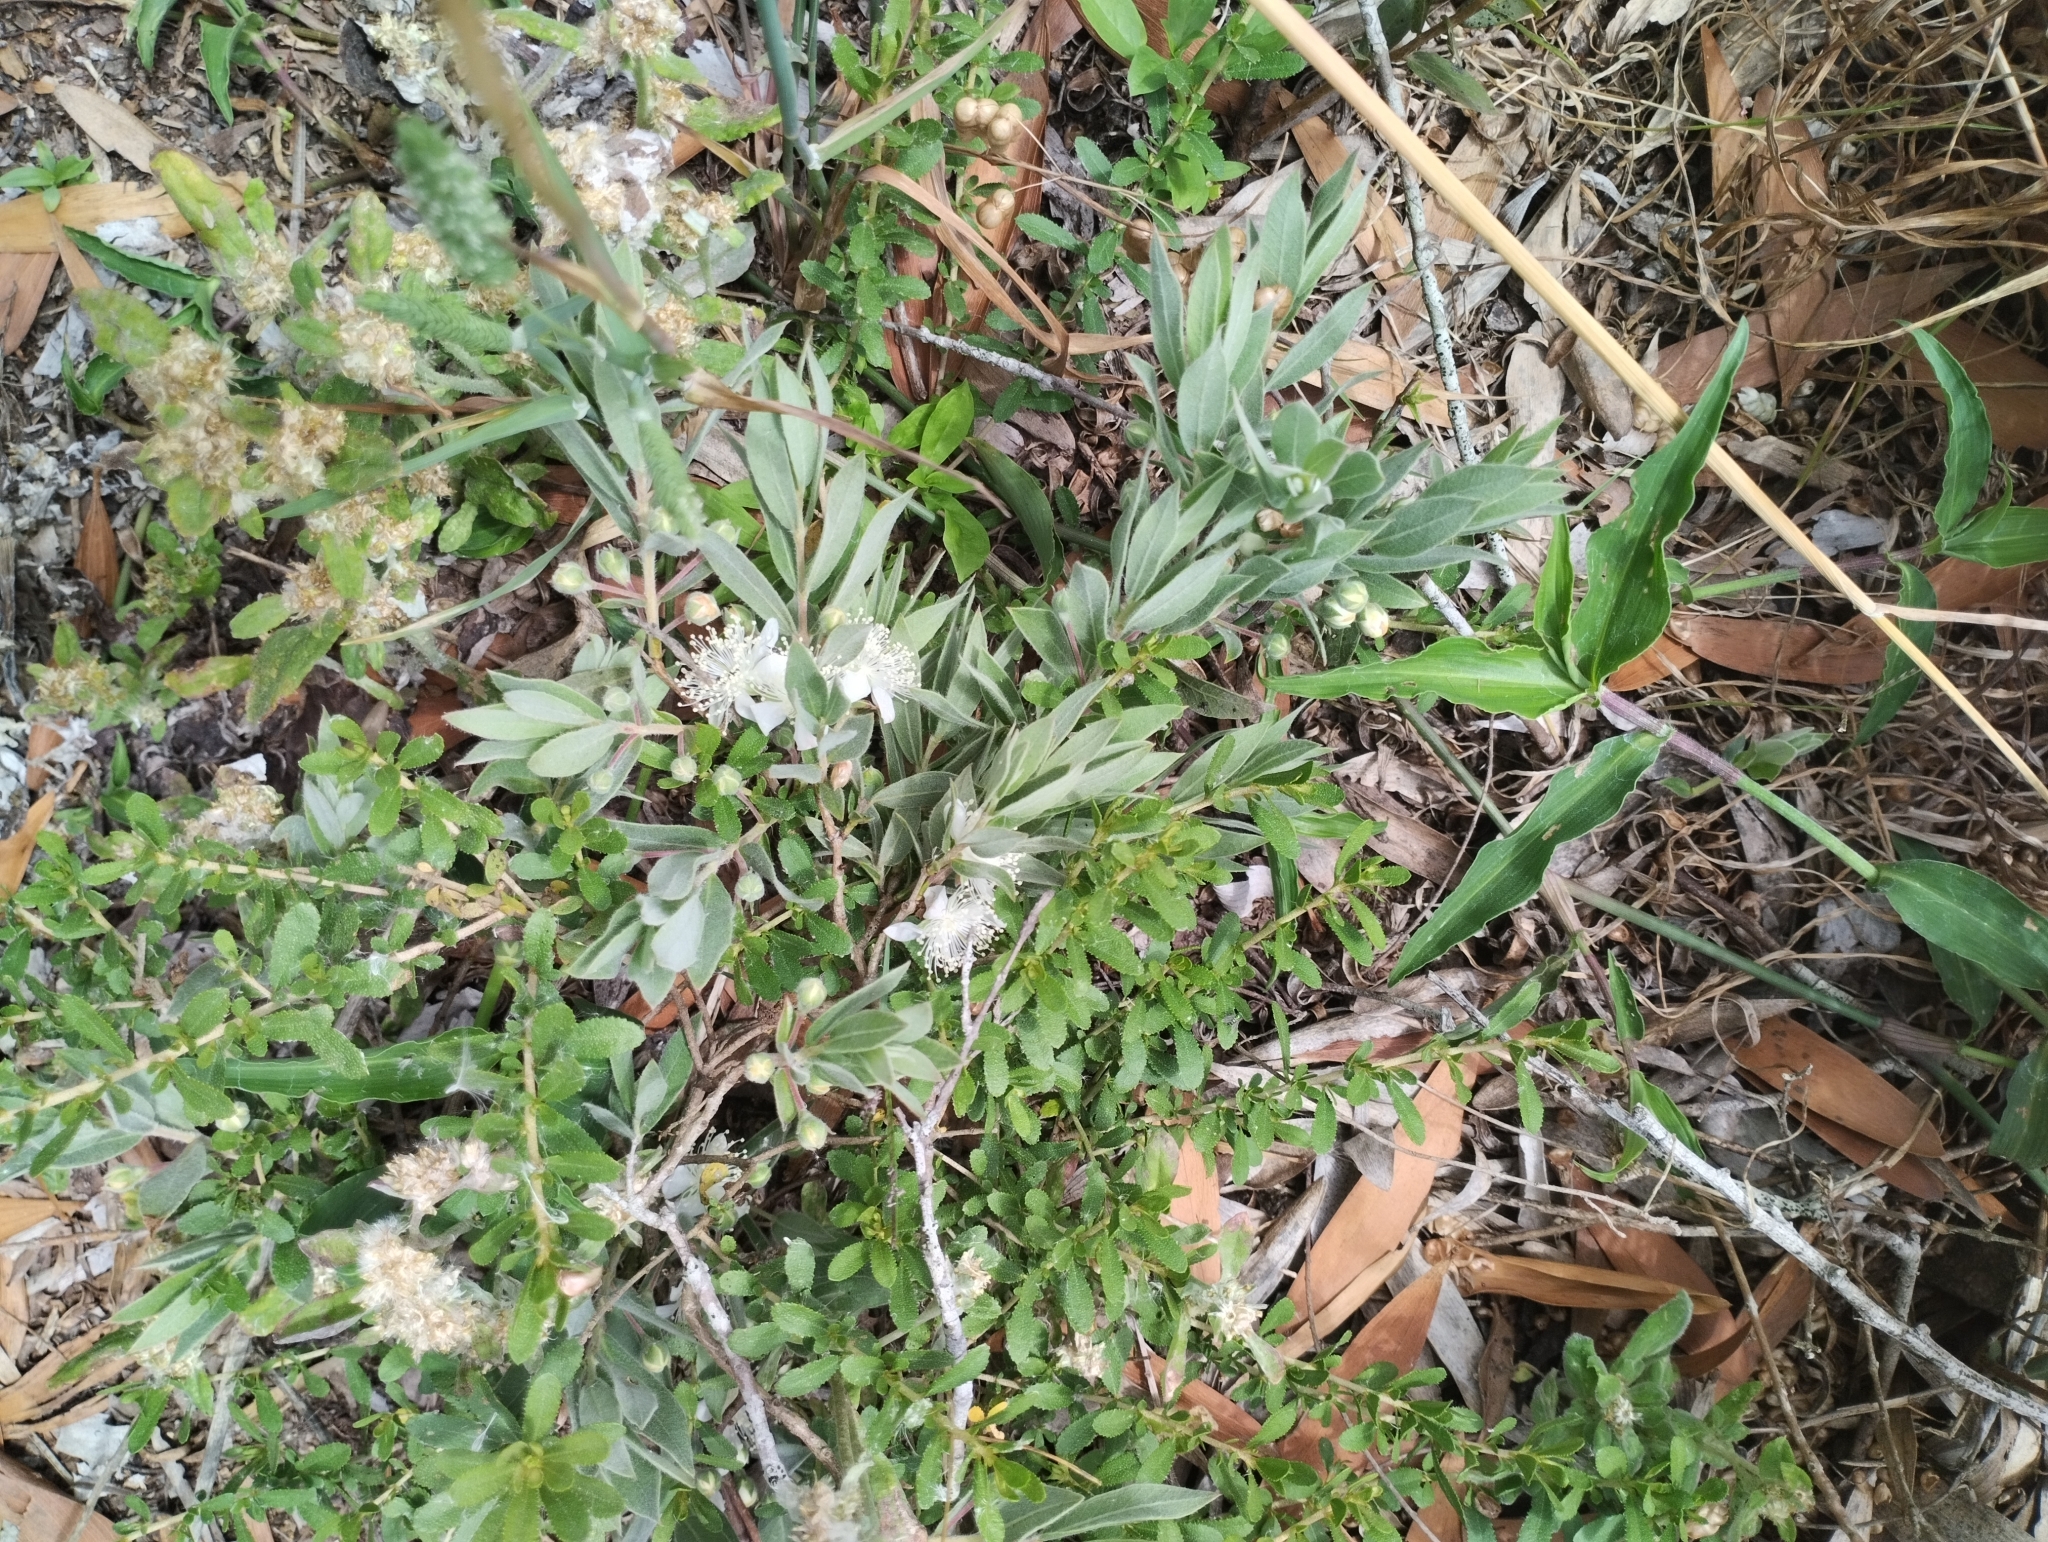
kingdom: Plantae
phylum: Tracheophyta
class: Magnoliopsida
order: Myrtales
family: Myrtaceae
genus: Psidium
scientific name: Psidium salutare
